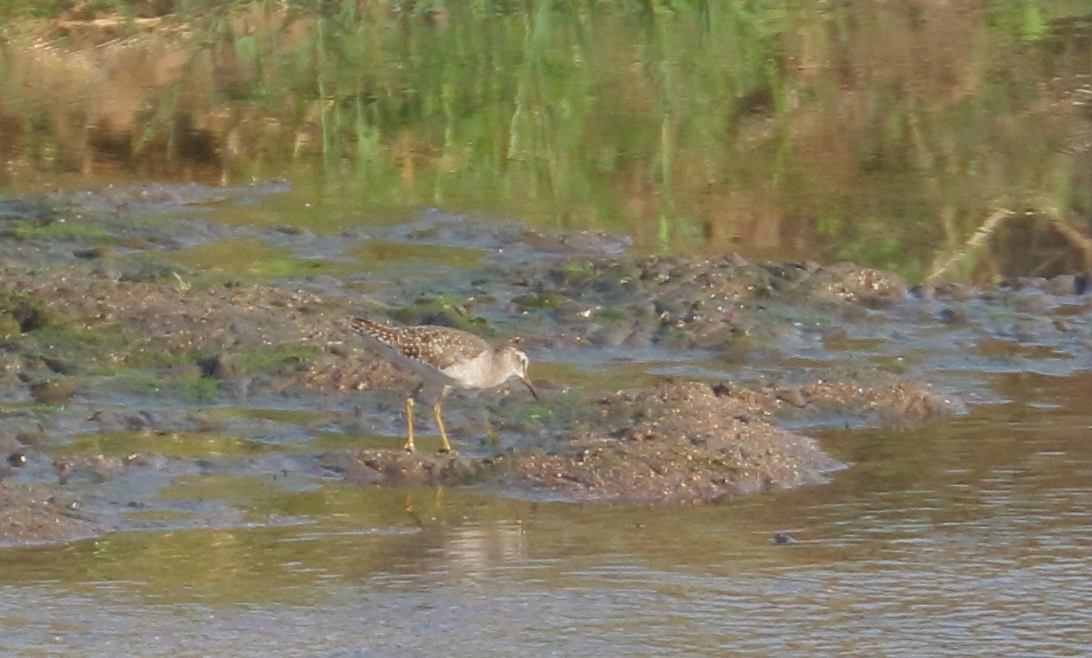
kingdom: Animalia
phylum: Chordata
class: Aves
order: Charadriiformes
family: Scolopacidae
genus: Tringa
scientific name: Tringa glareola
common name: Wood sandpiper
